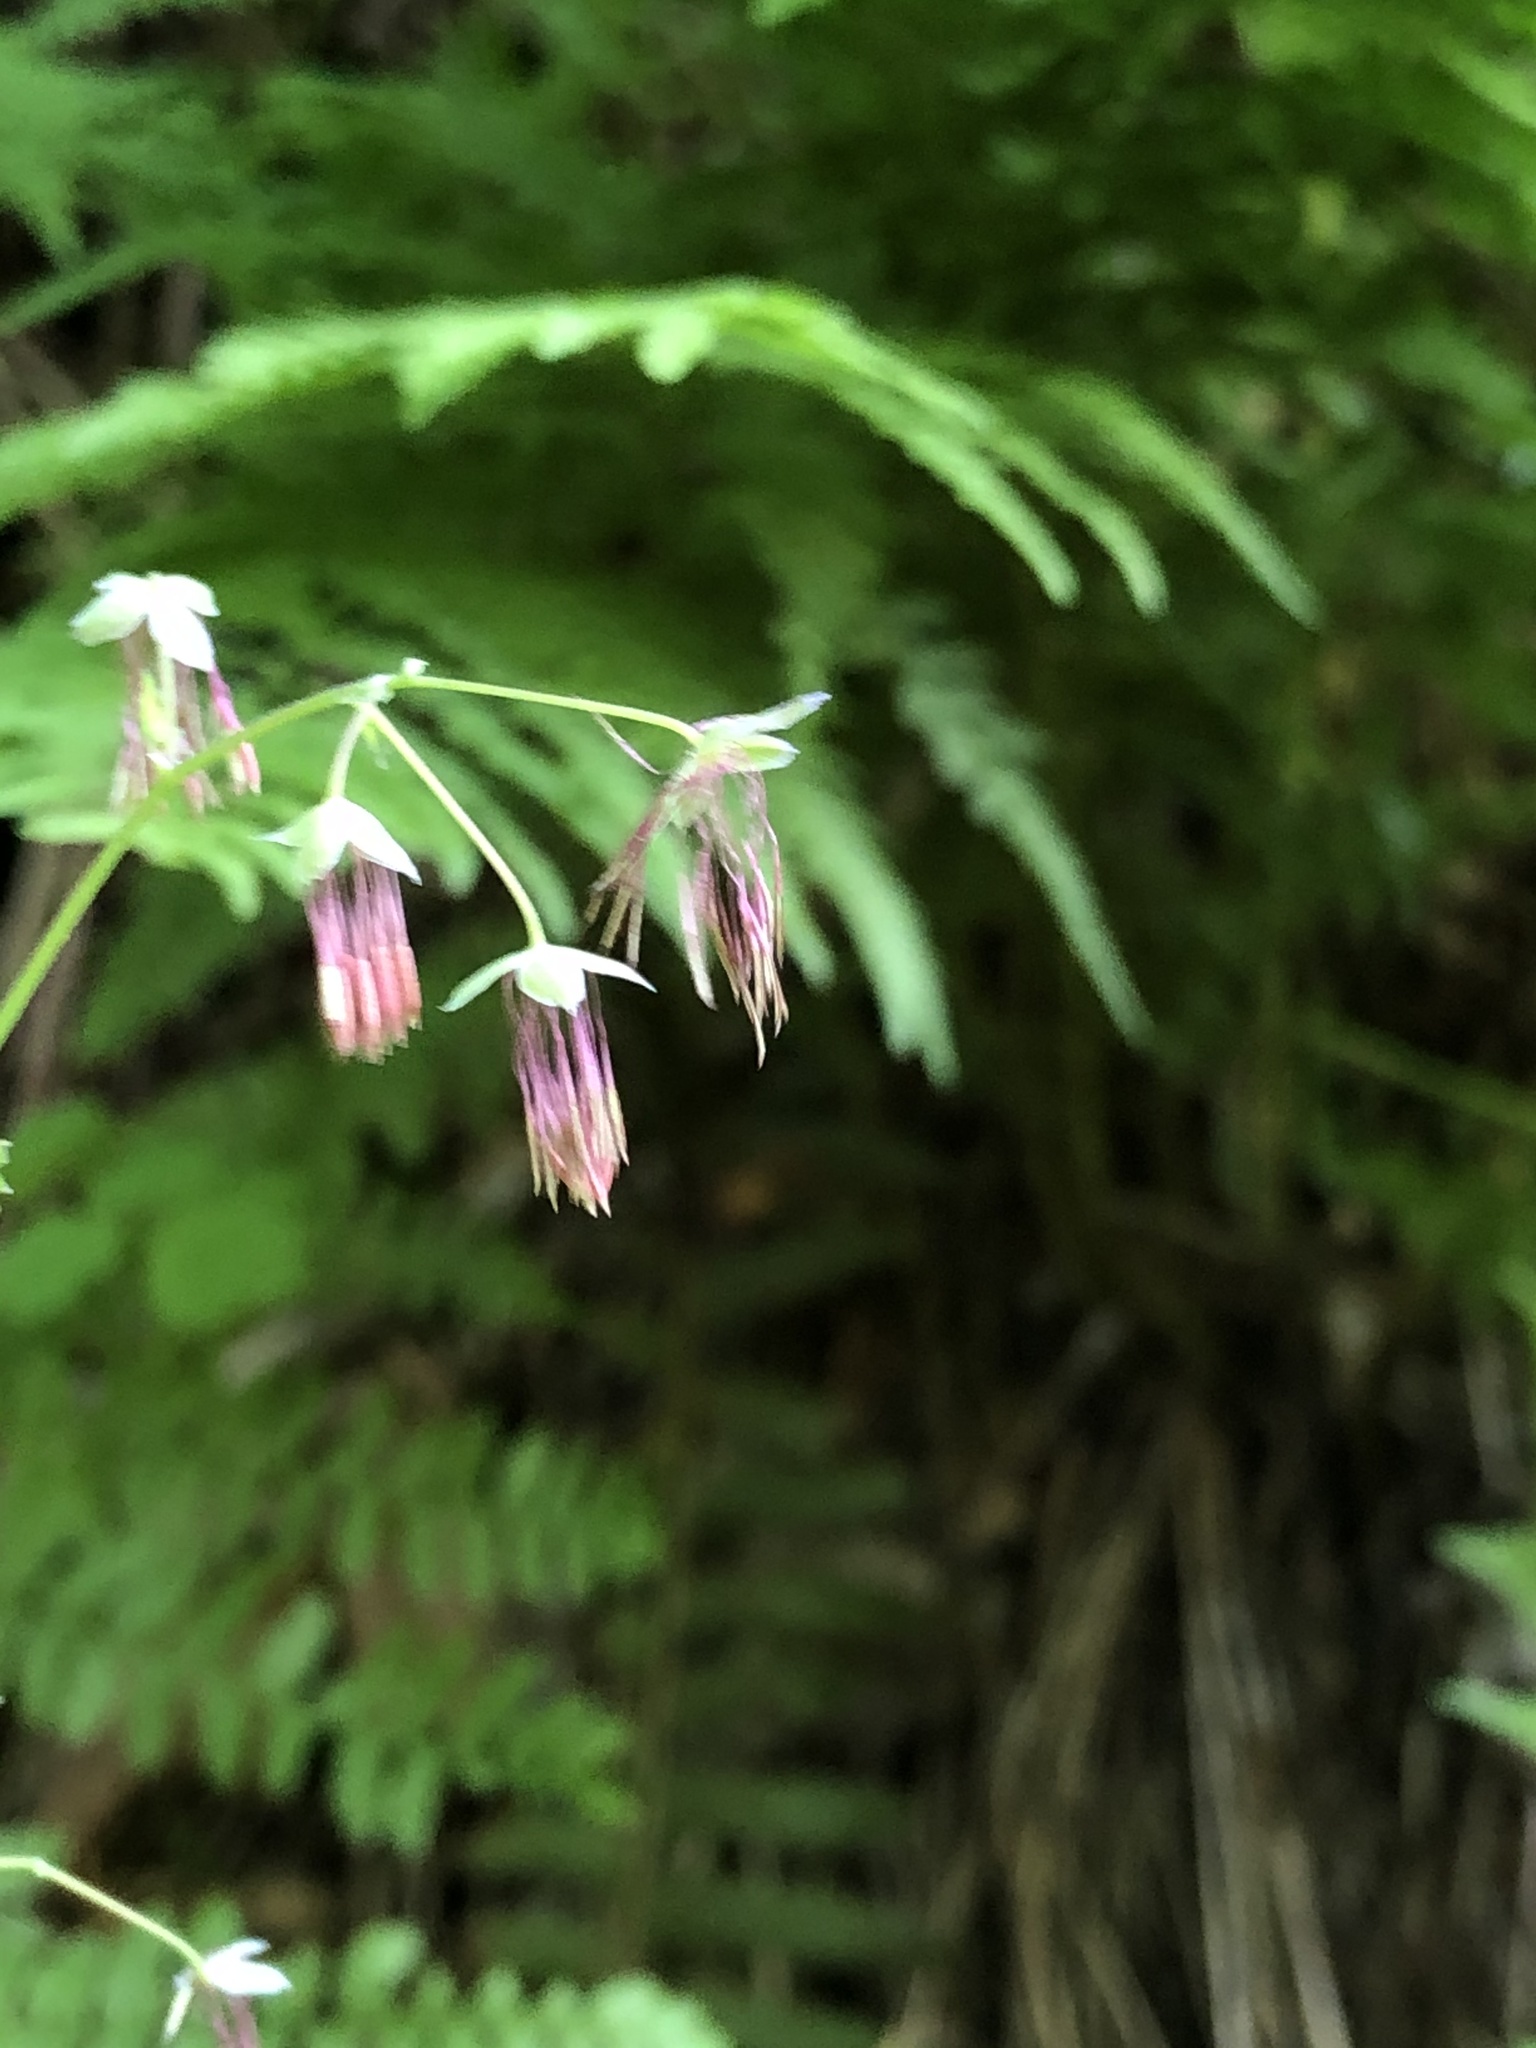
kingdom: Plantae
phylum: Tracheophyta
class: Magnoliopsida
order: Ranunculales
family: Ranunculaceae
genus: Thalictrum
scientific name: Thalictrum occidentale
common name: Western meadow-rue
